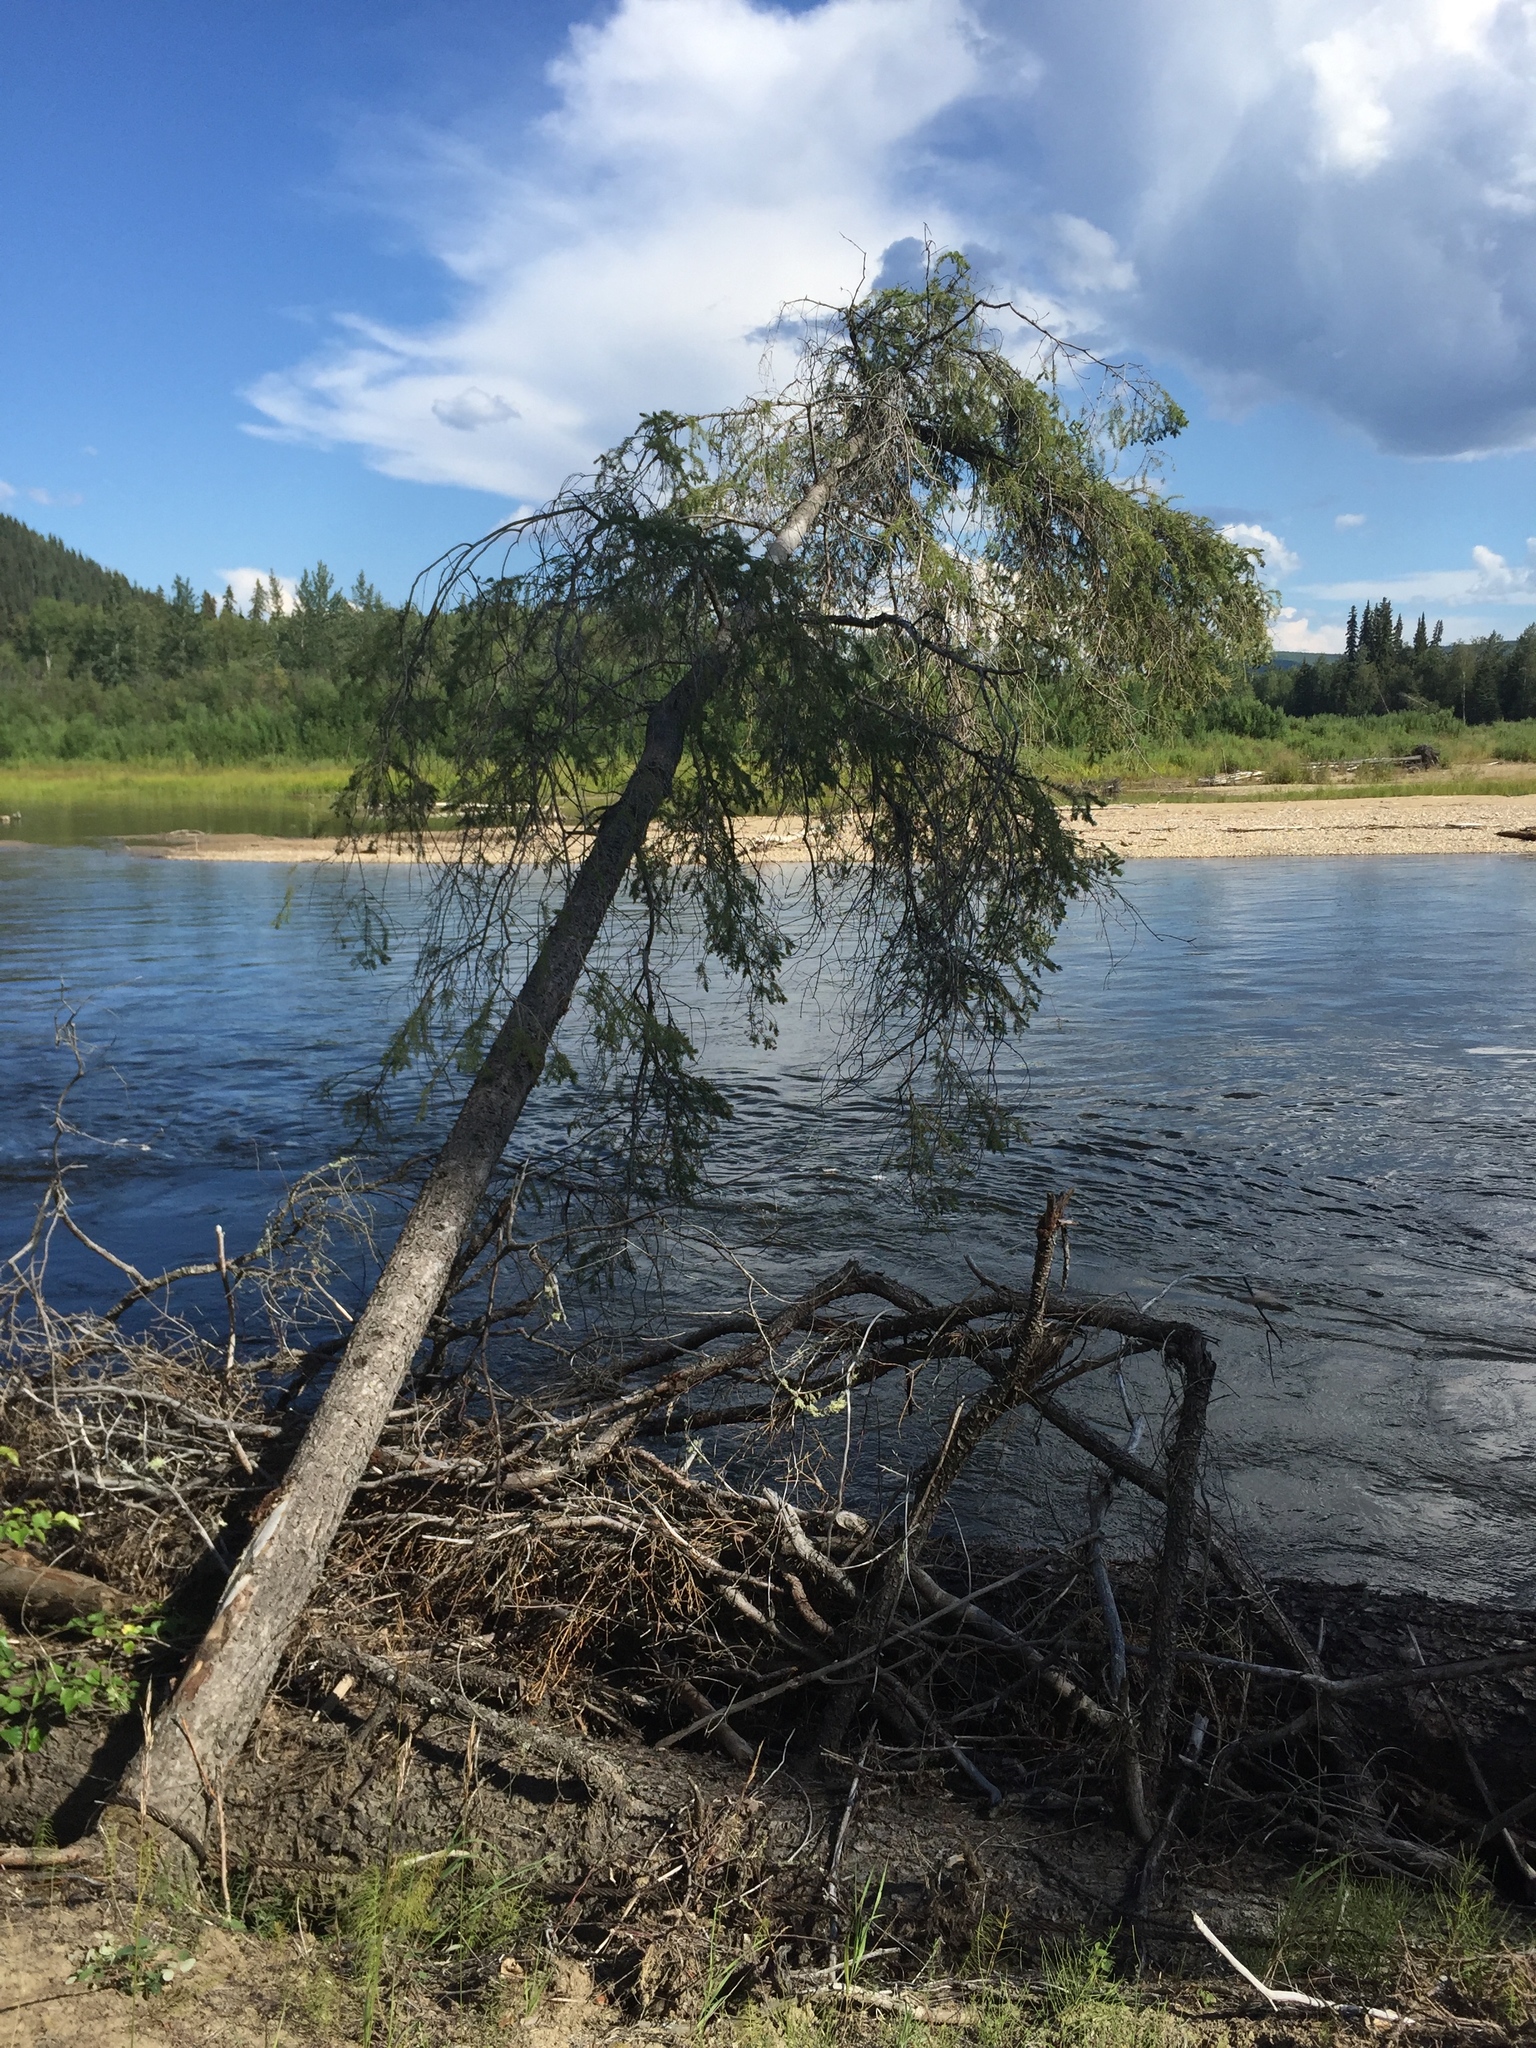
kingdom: Plantae
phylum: Tracheophyta
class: Pinopsida
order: Pinales
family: Pinaceae
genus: Picea
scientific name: Picea glauca
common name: White spruce
